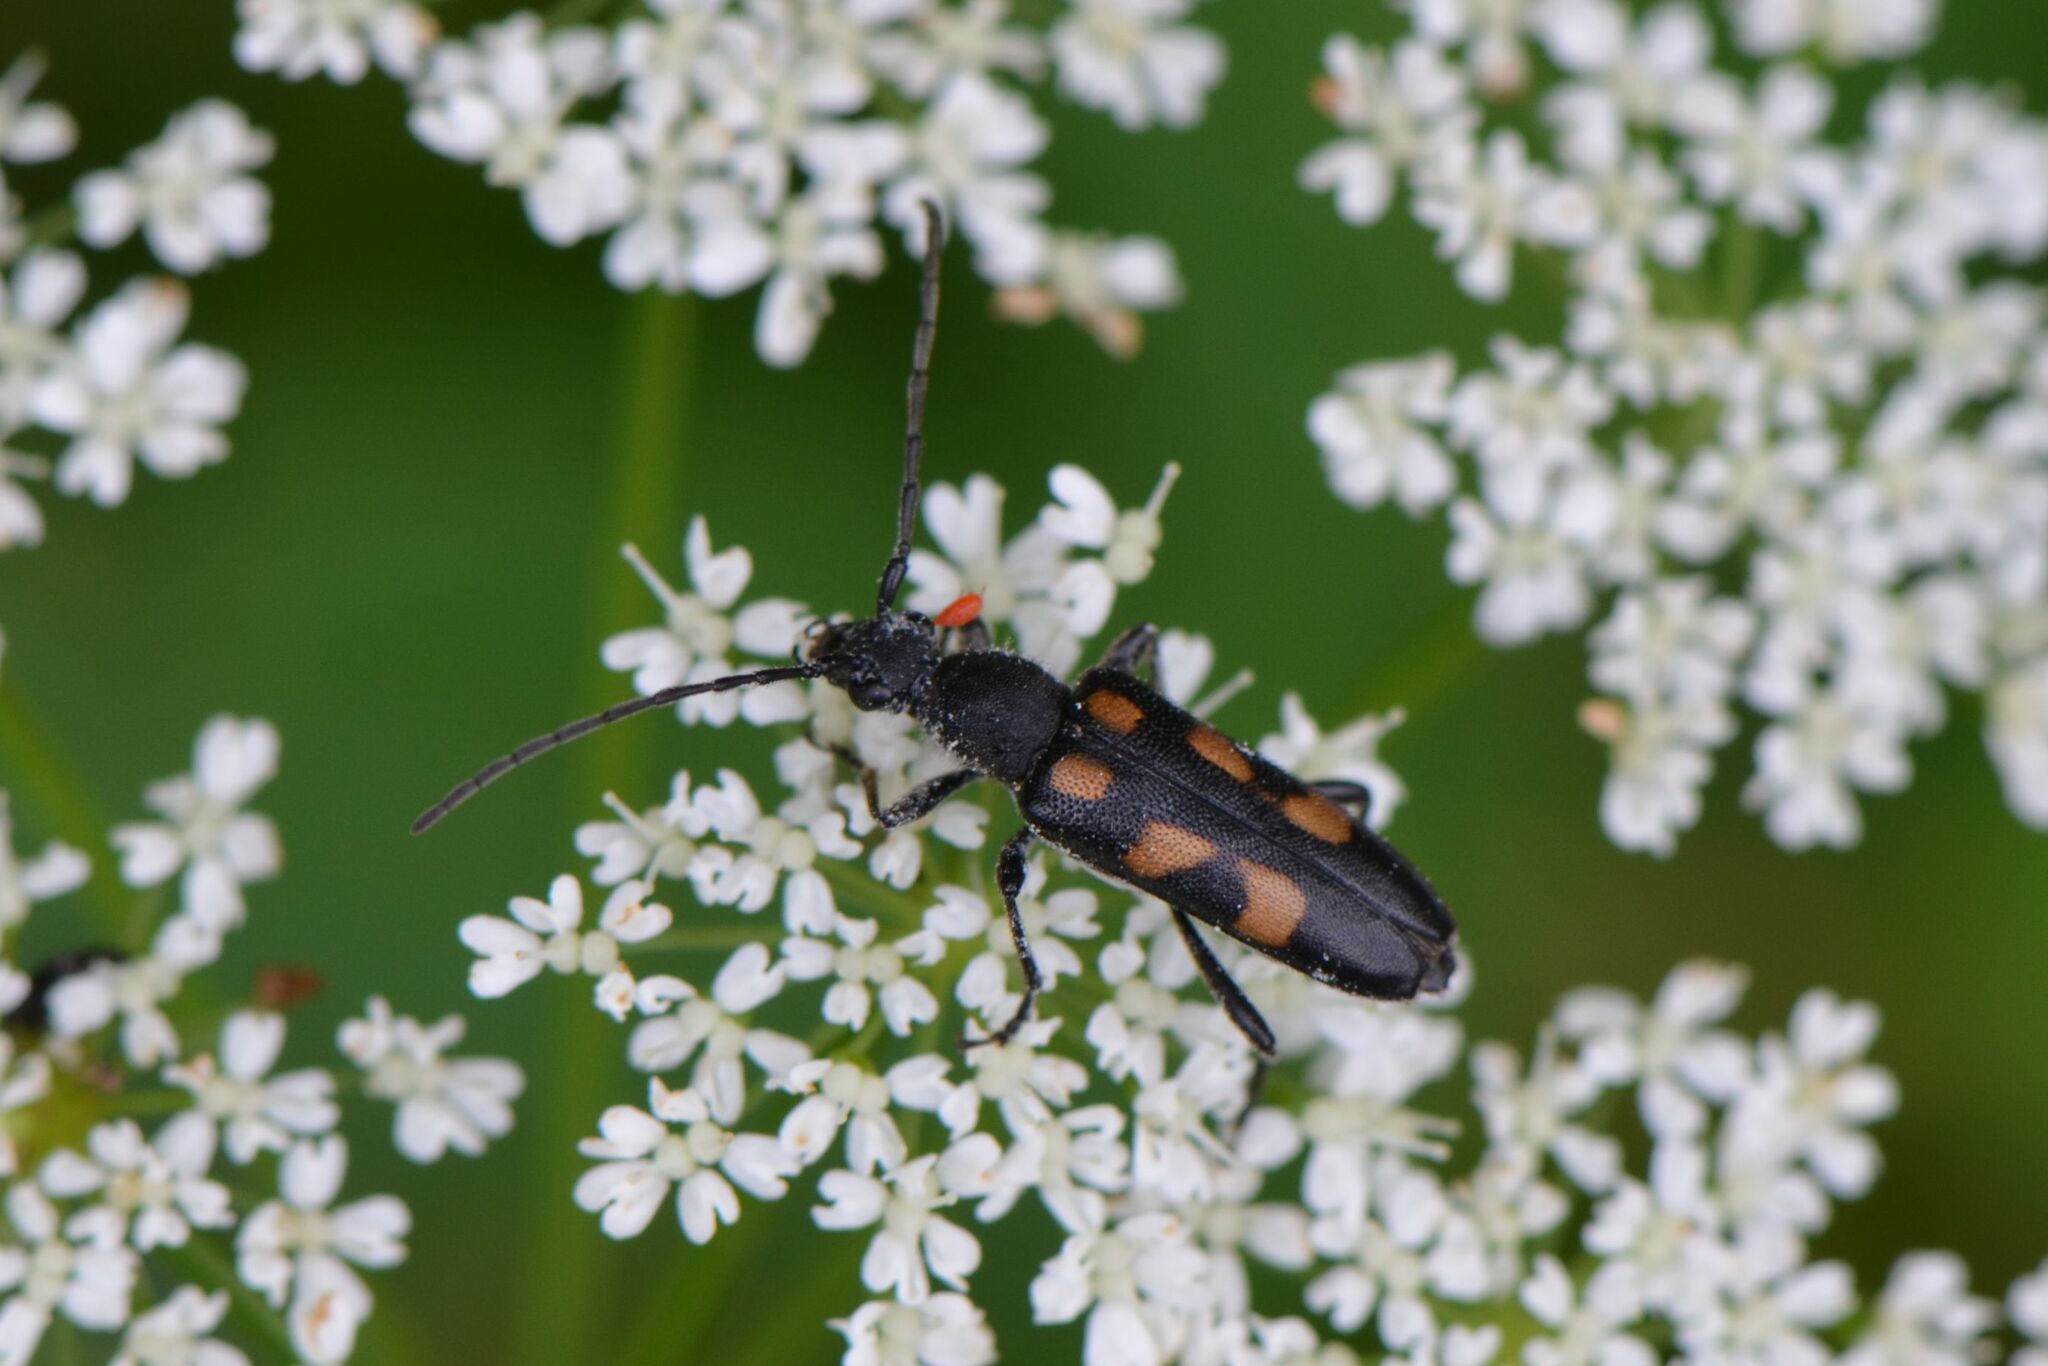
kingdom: Animalia
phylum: Arthropoda
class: Insecta
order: Coleoptera
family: Cerambycidae
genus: Anoplodera
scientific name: Anoplodera sexguttata
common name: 6 spotted longhorn
